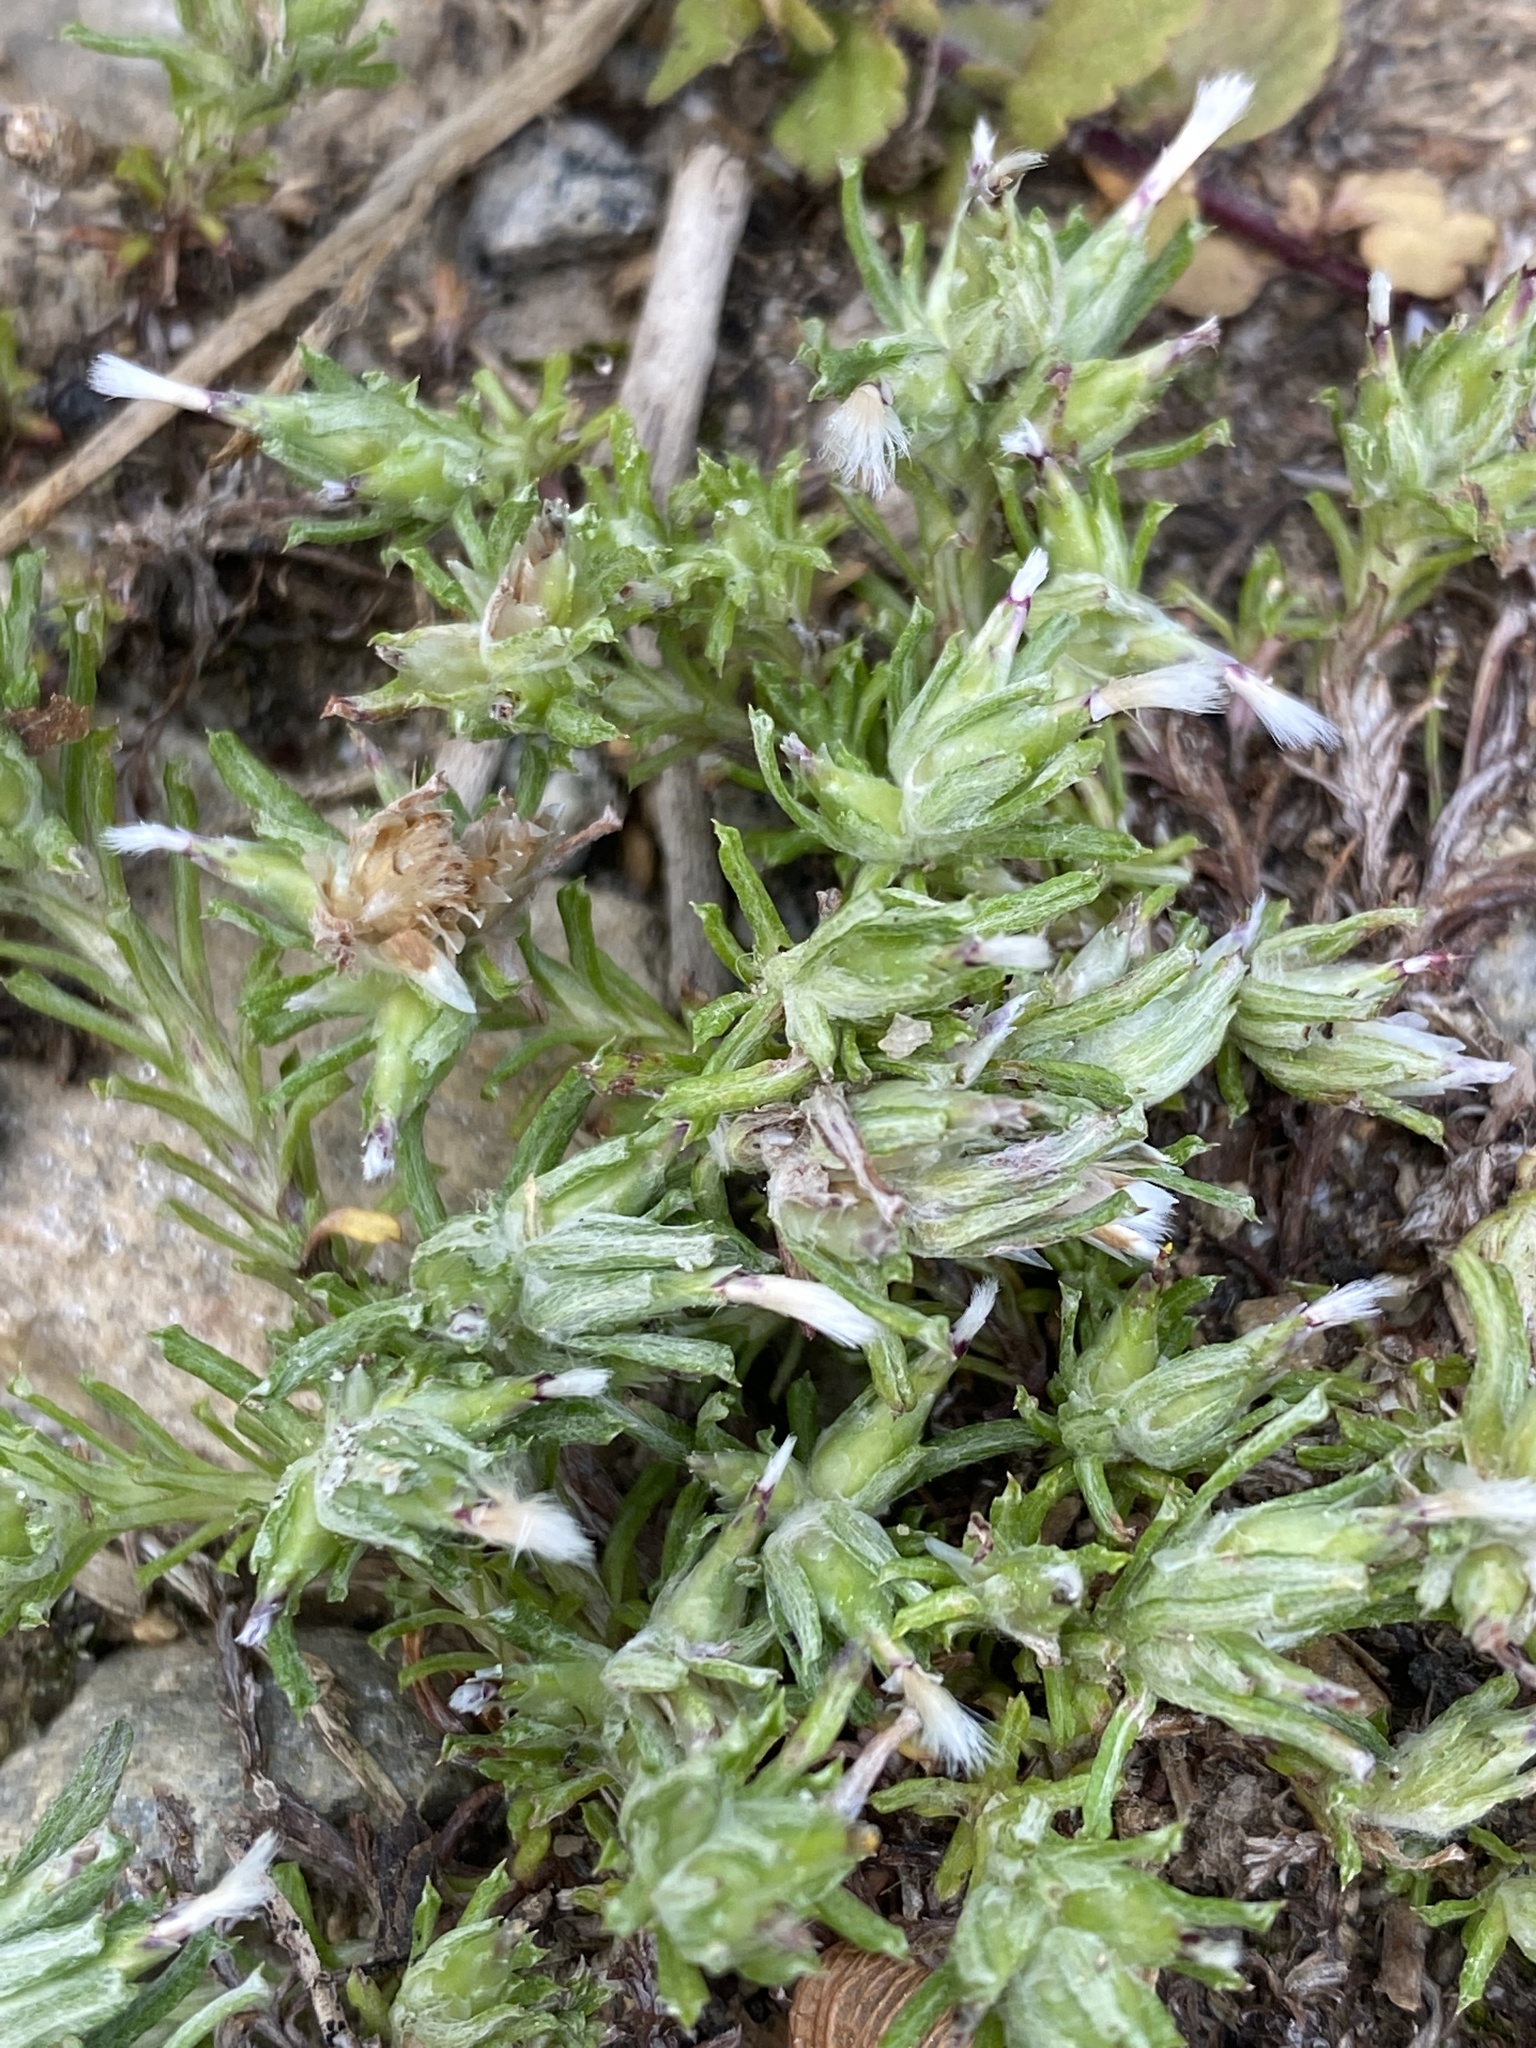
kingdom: Plantae
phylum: Tracheophyta
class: Magnoliopsida
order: Asterales
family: Asteraceae
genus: Facelis
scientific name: Facelis retusa
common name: Annual trampweed
